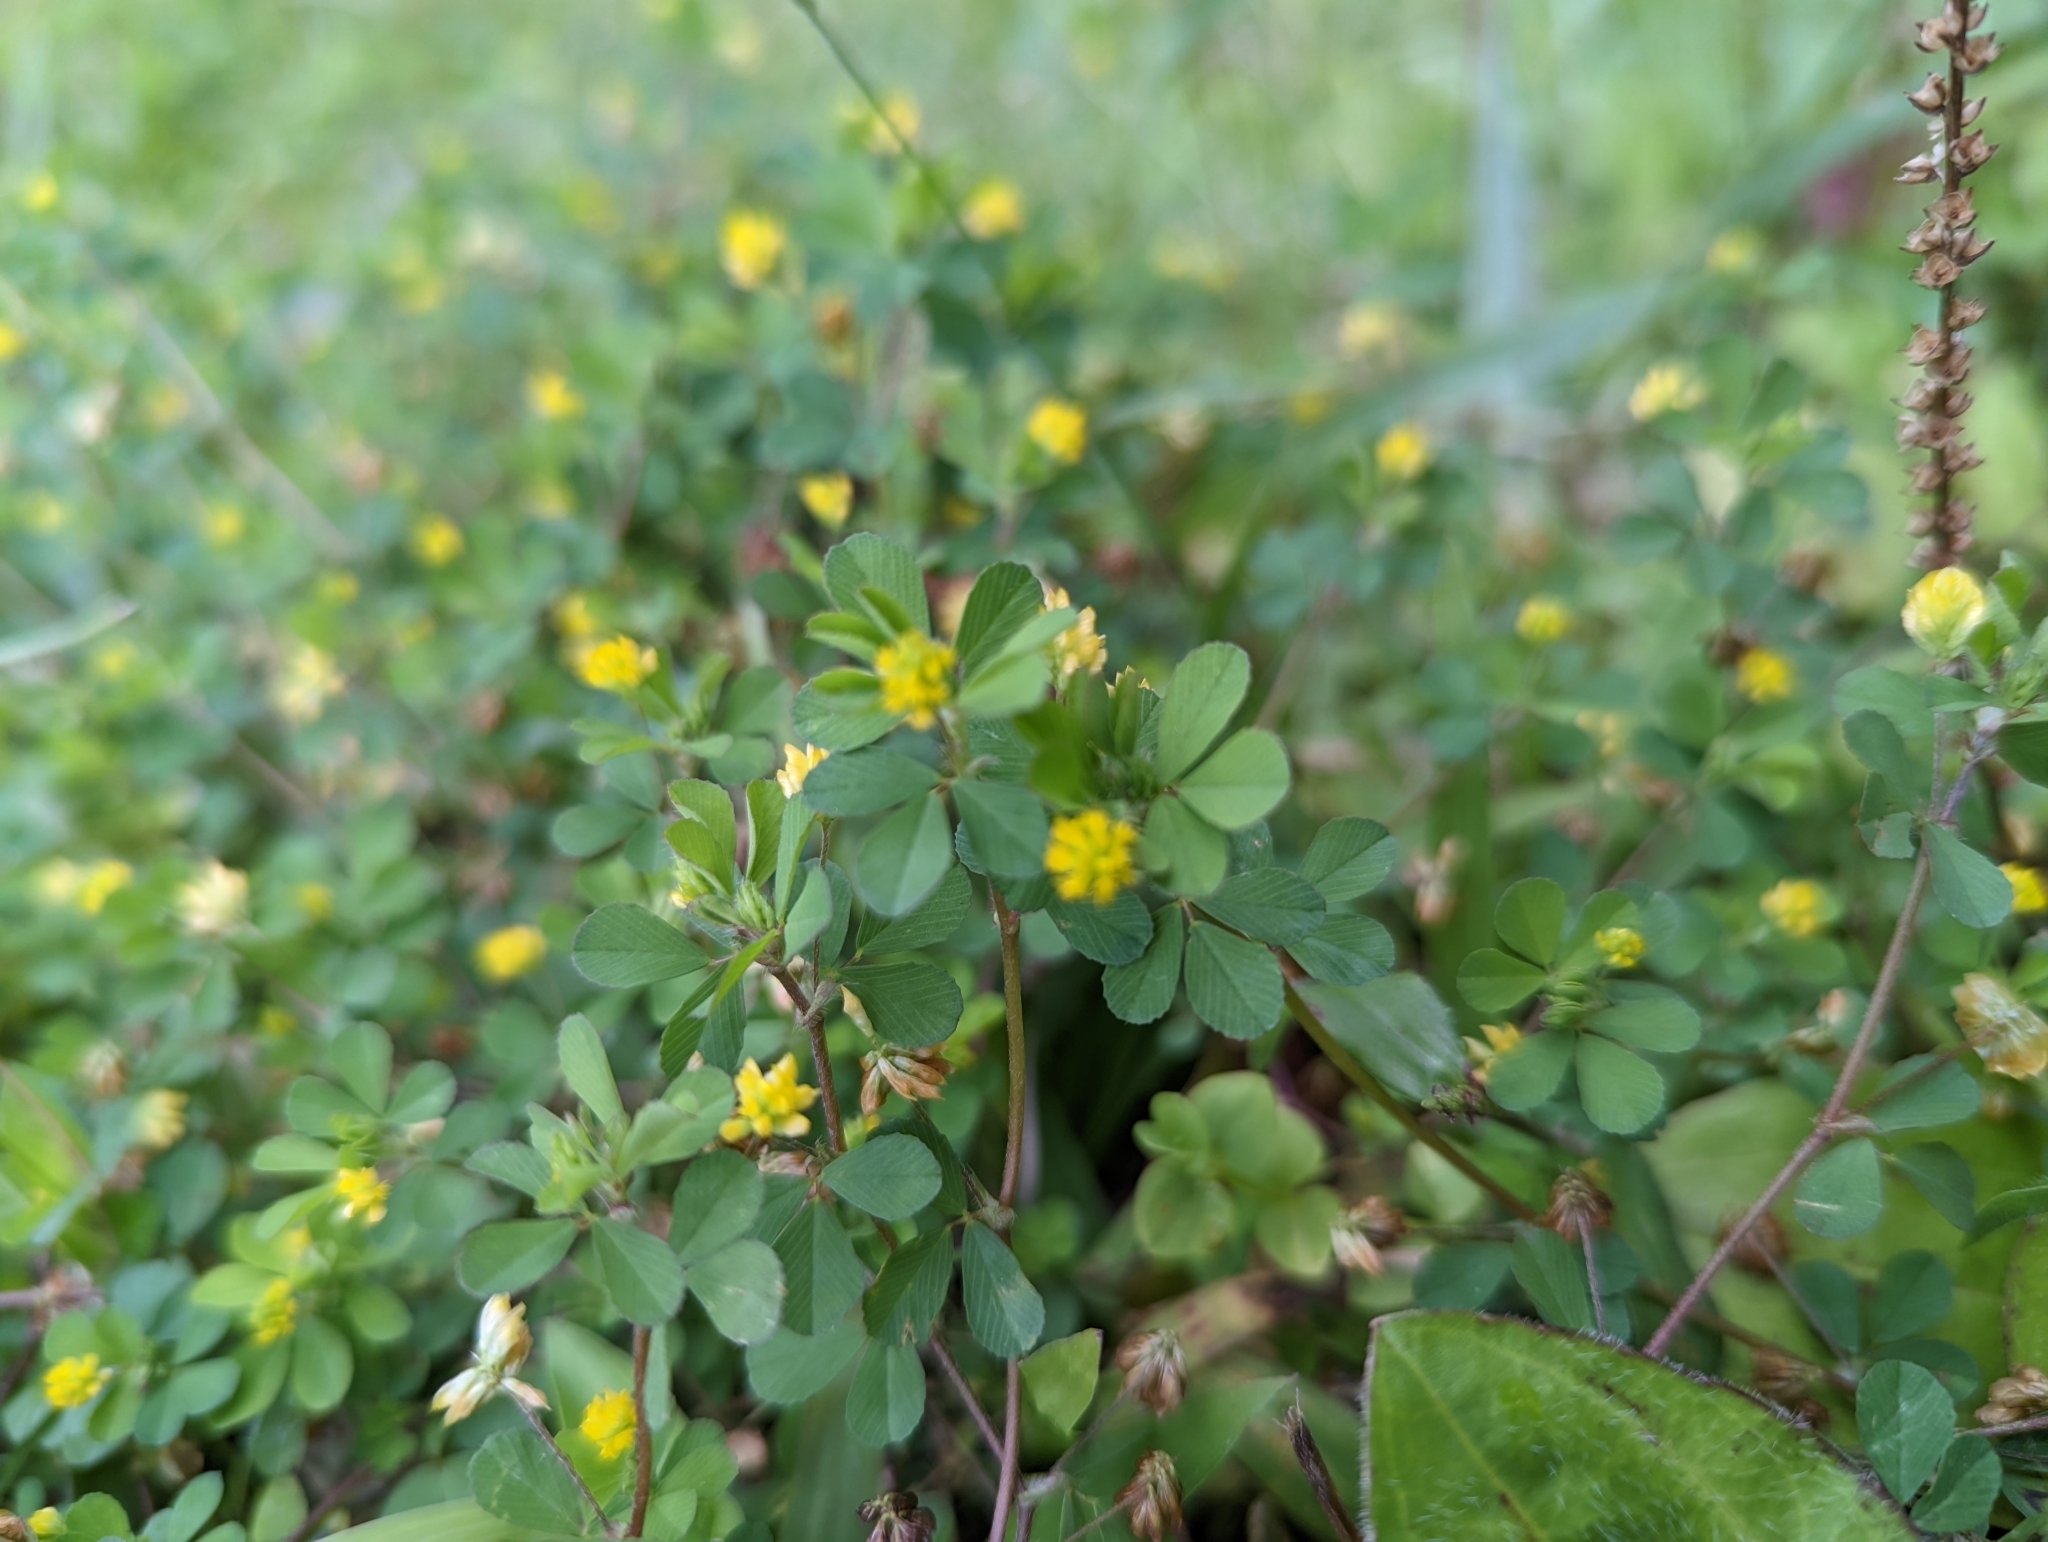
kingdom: Plantae
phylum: Tracheophyta
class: Magnoliopsida
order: Fabales
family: Fabaceae
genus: Trifolium
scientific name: Trifolium dubium
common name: Suckling clover
